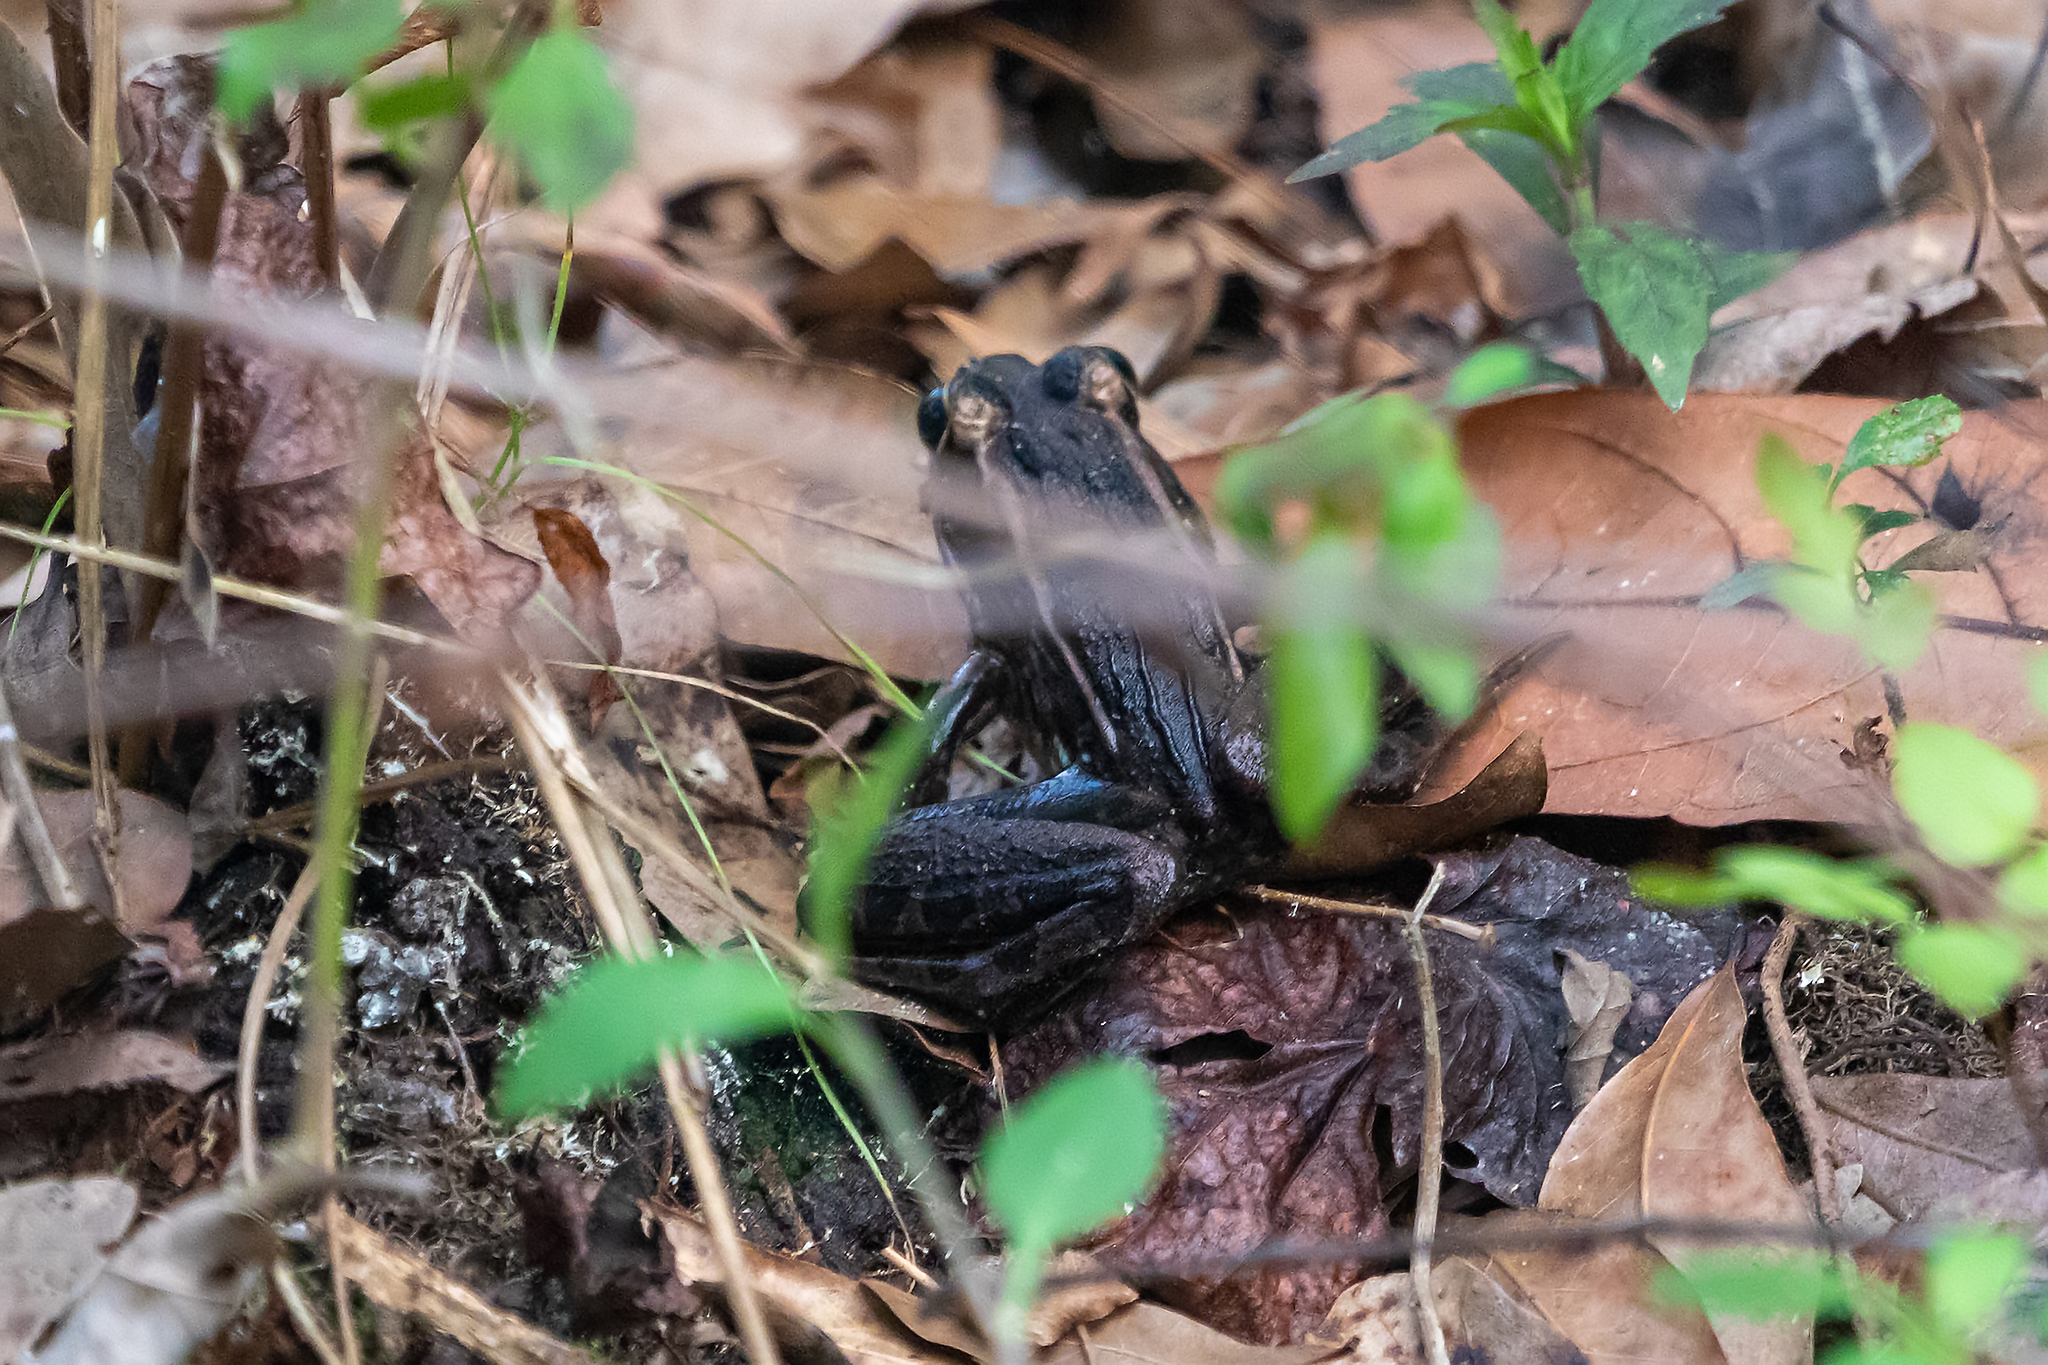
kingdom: Animalia
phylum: Chordata
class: Amphibia
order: Anura
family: Ranidae
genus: Lithobates
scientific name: Lithobates sphenocephalus
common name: Southern leopard frog
